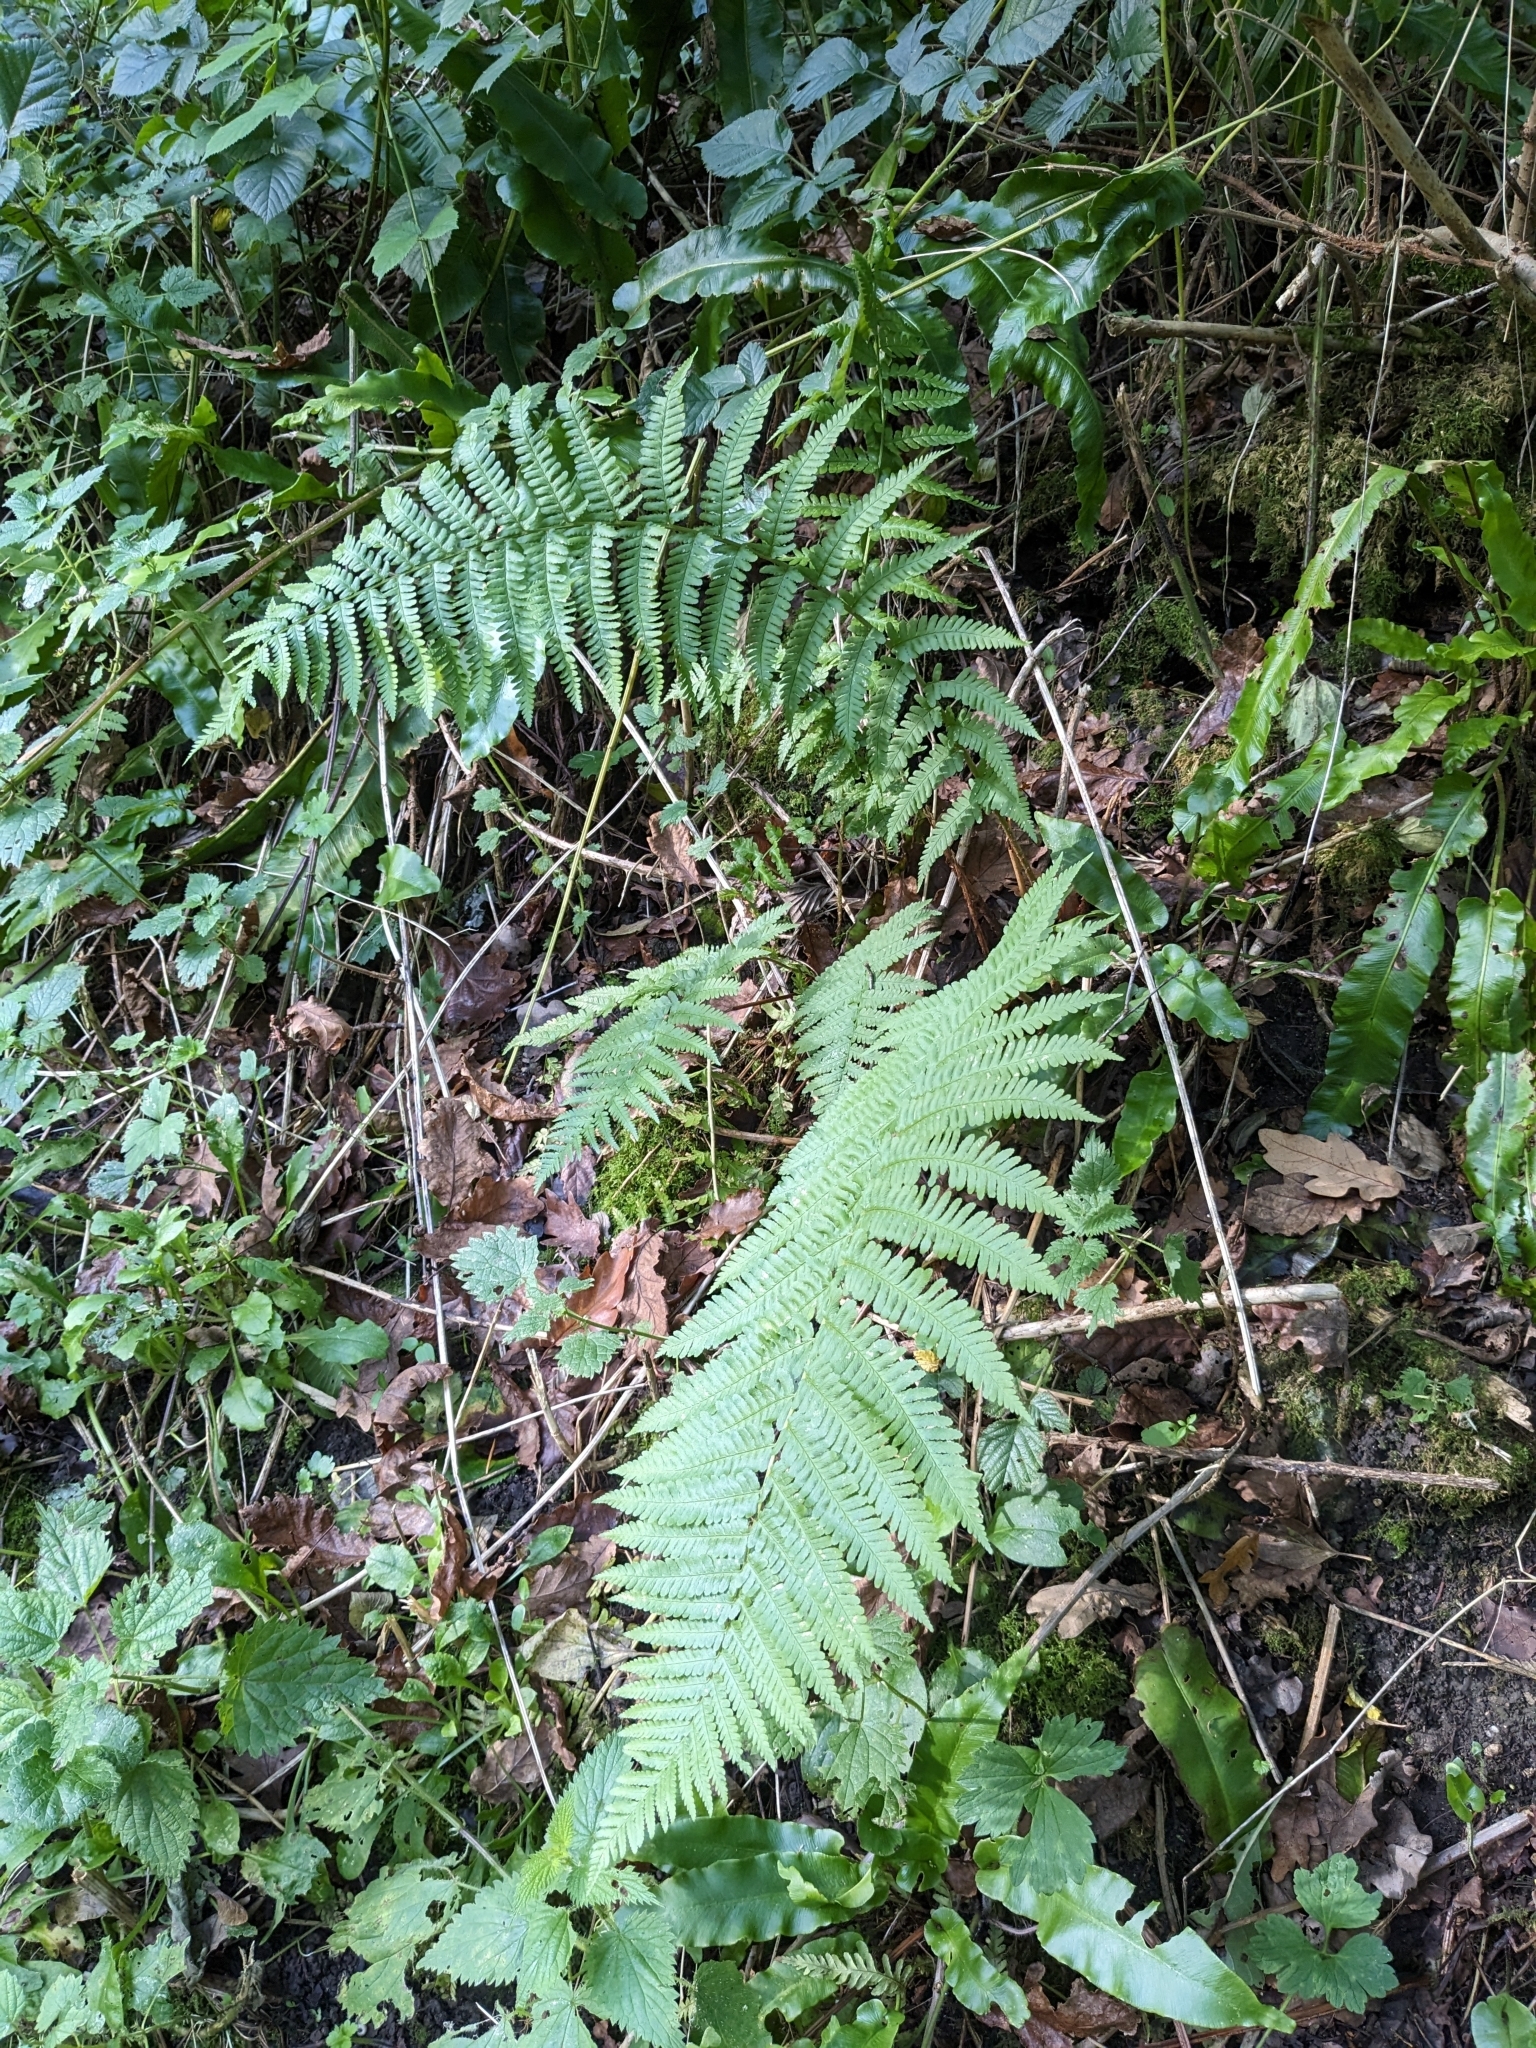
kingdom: Plantae
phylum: Tracheophyta
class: Polypodiopsida
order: Polypodiales
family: Dryopteridaceae
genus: Dryopteris
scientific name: Dryopteris filix-mas
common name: Male fern
